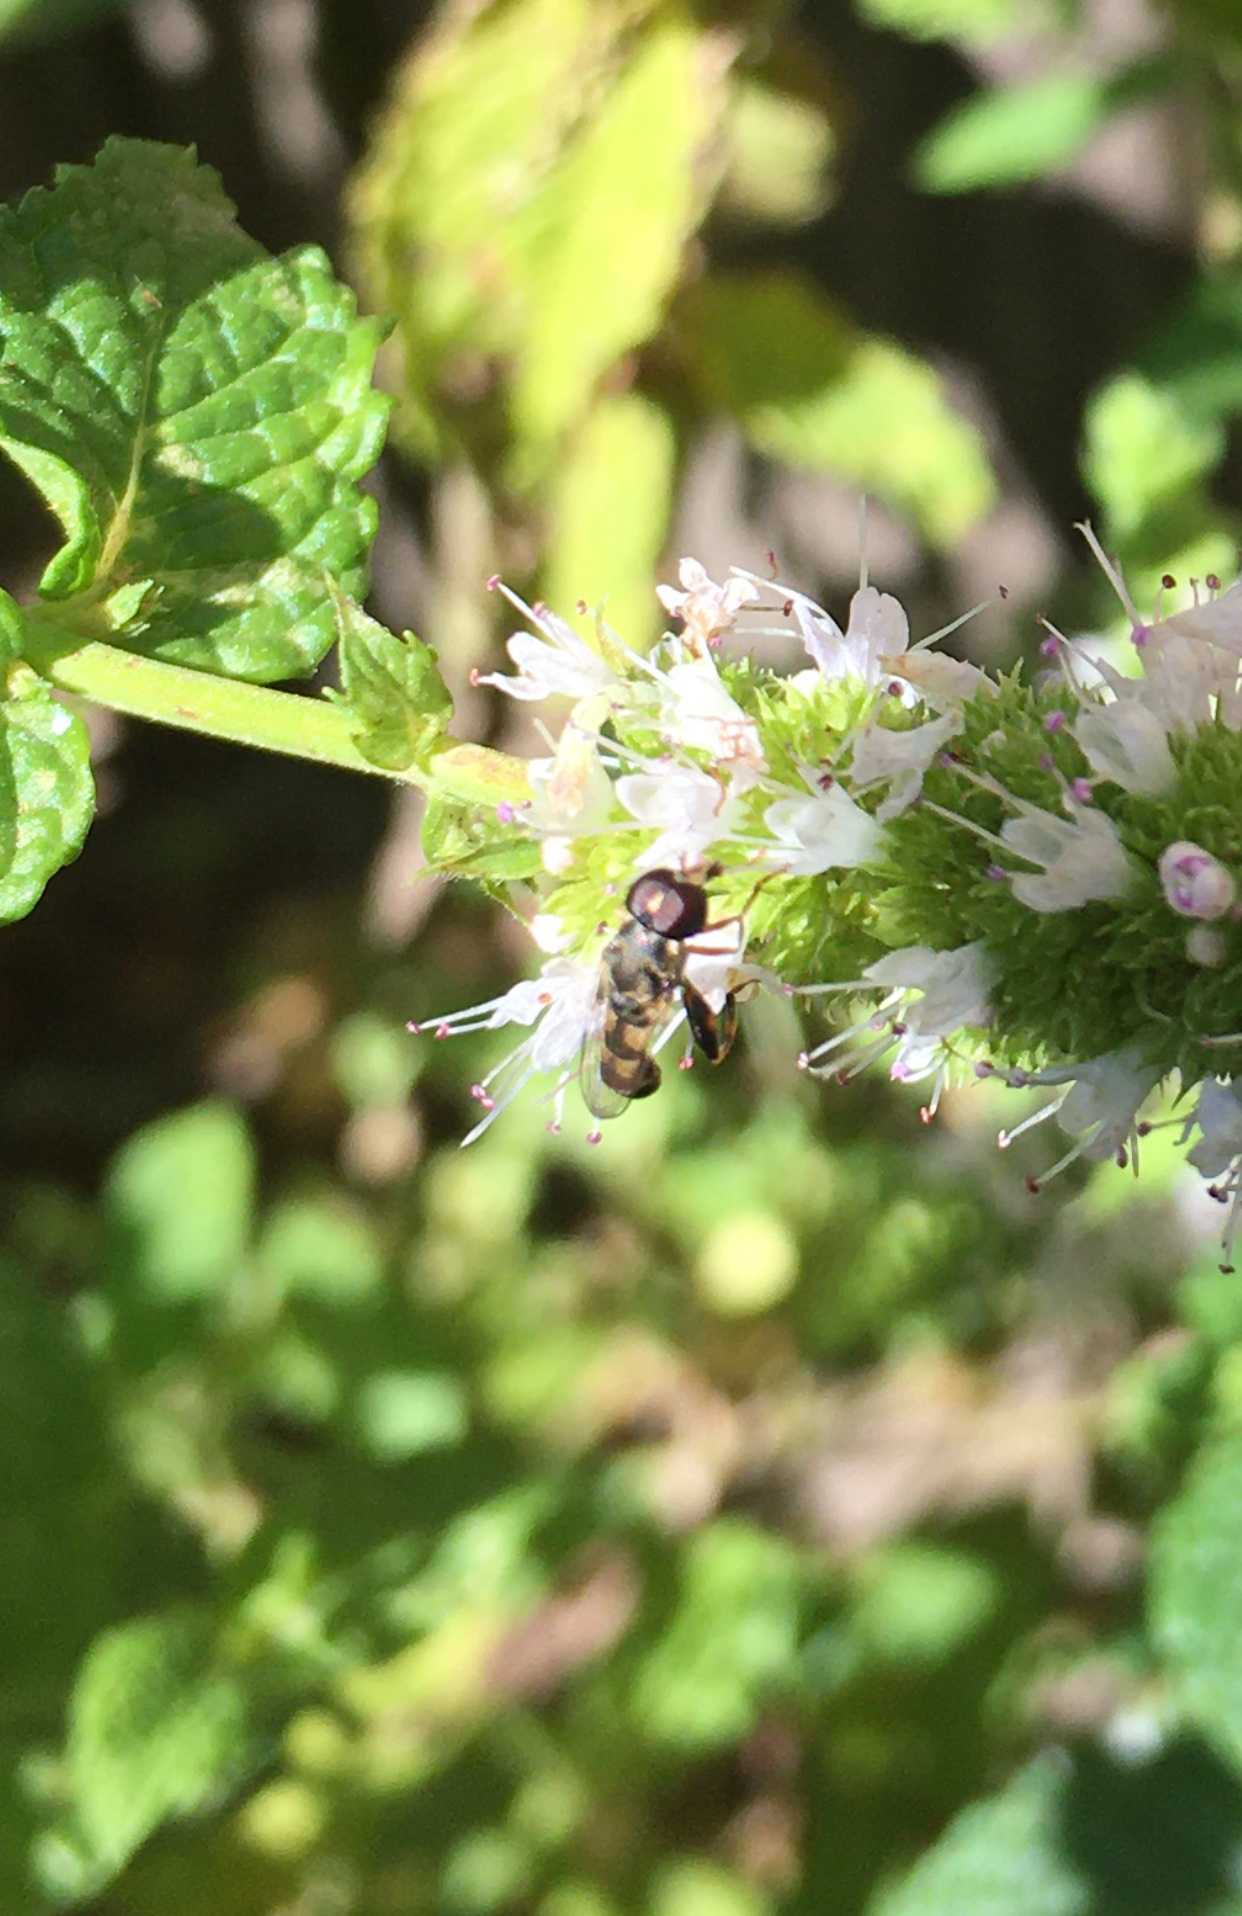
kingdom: Animalia
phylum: Arthropoda
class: Insecta
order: Diptera
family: Syrphidae
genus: Syritta
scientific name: Syritta pipiens
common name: Hover fly
